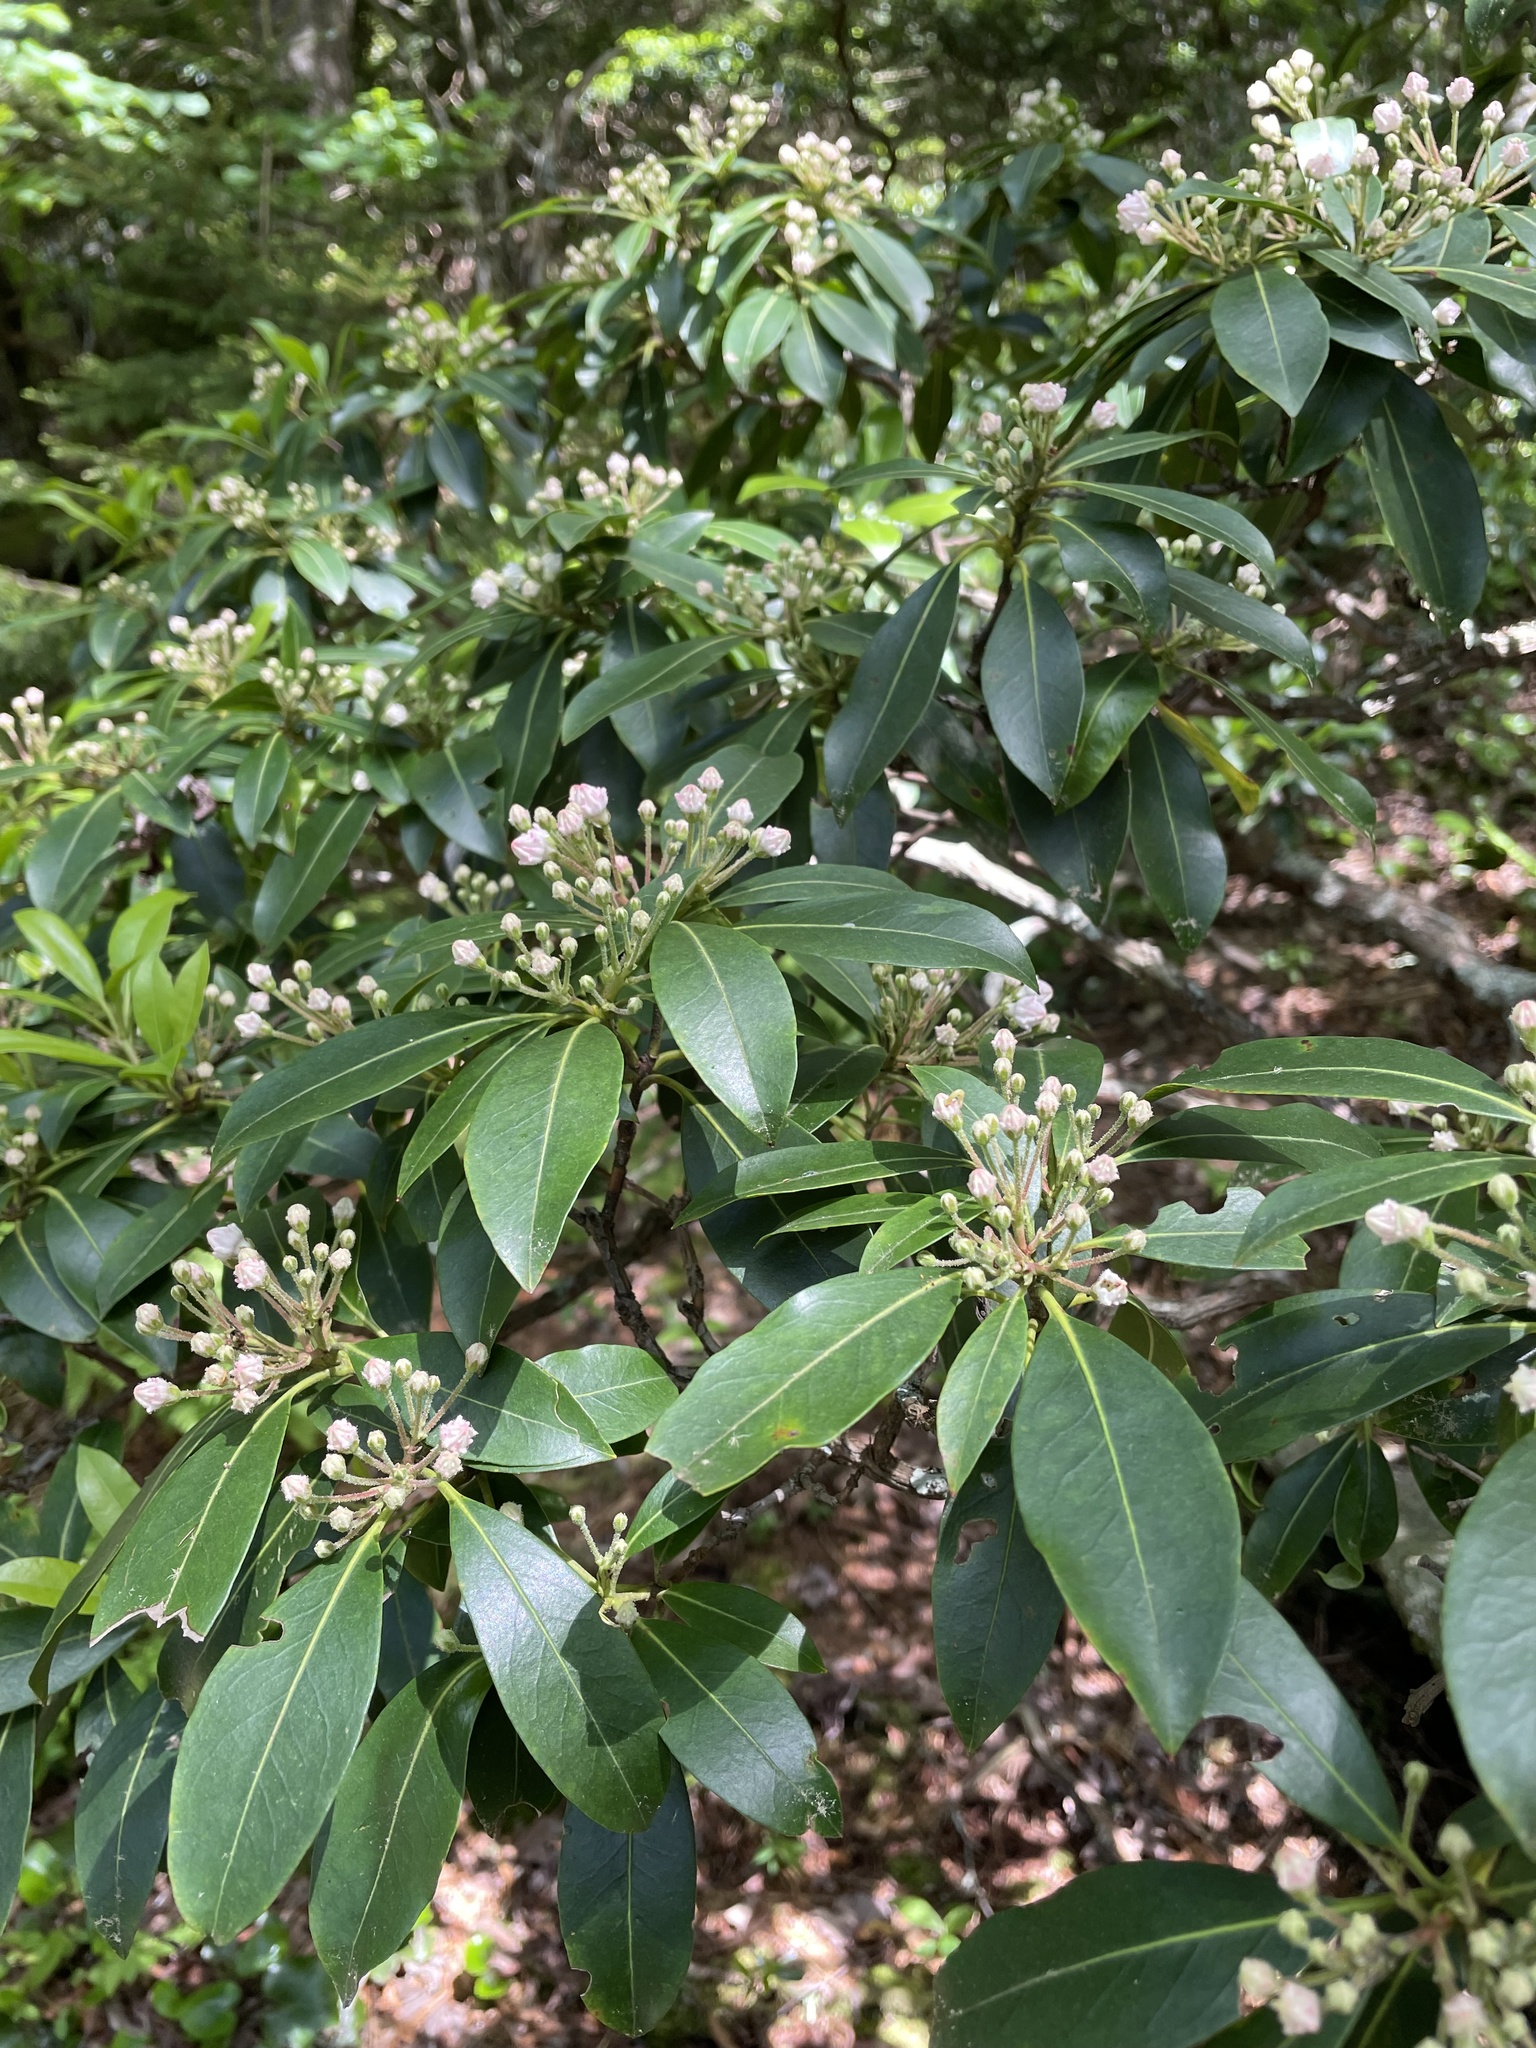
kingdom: Plantae
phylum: Tracheophyta
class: Magnoliopsida
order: Ericales
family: Ericaceae
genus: Kalmia
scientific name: Kalmia latifolia
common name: Mountain-laurel
